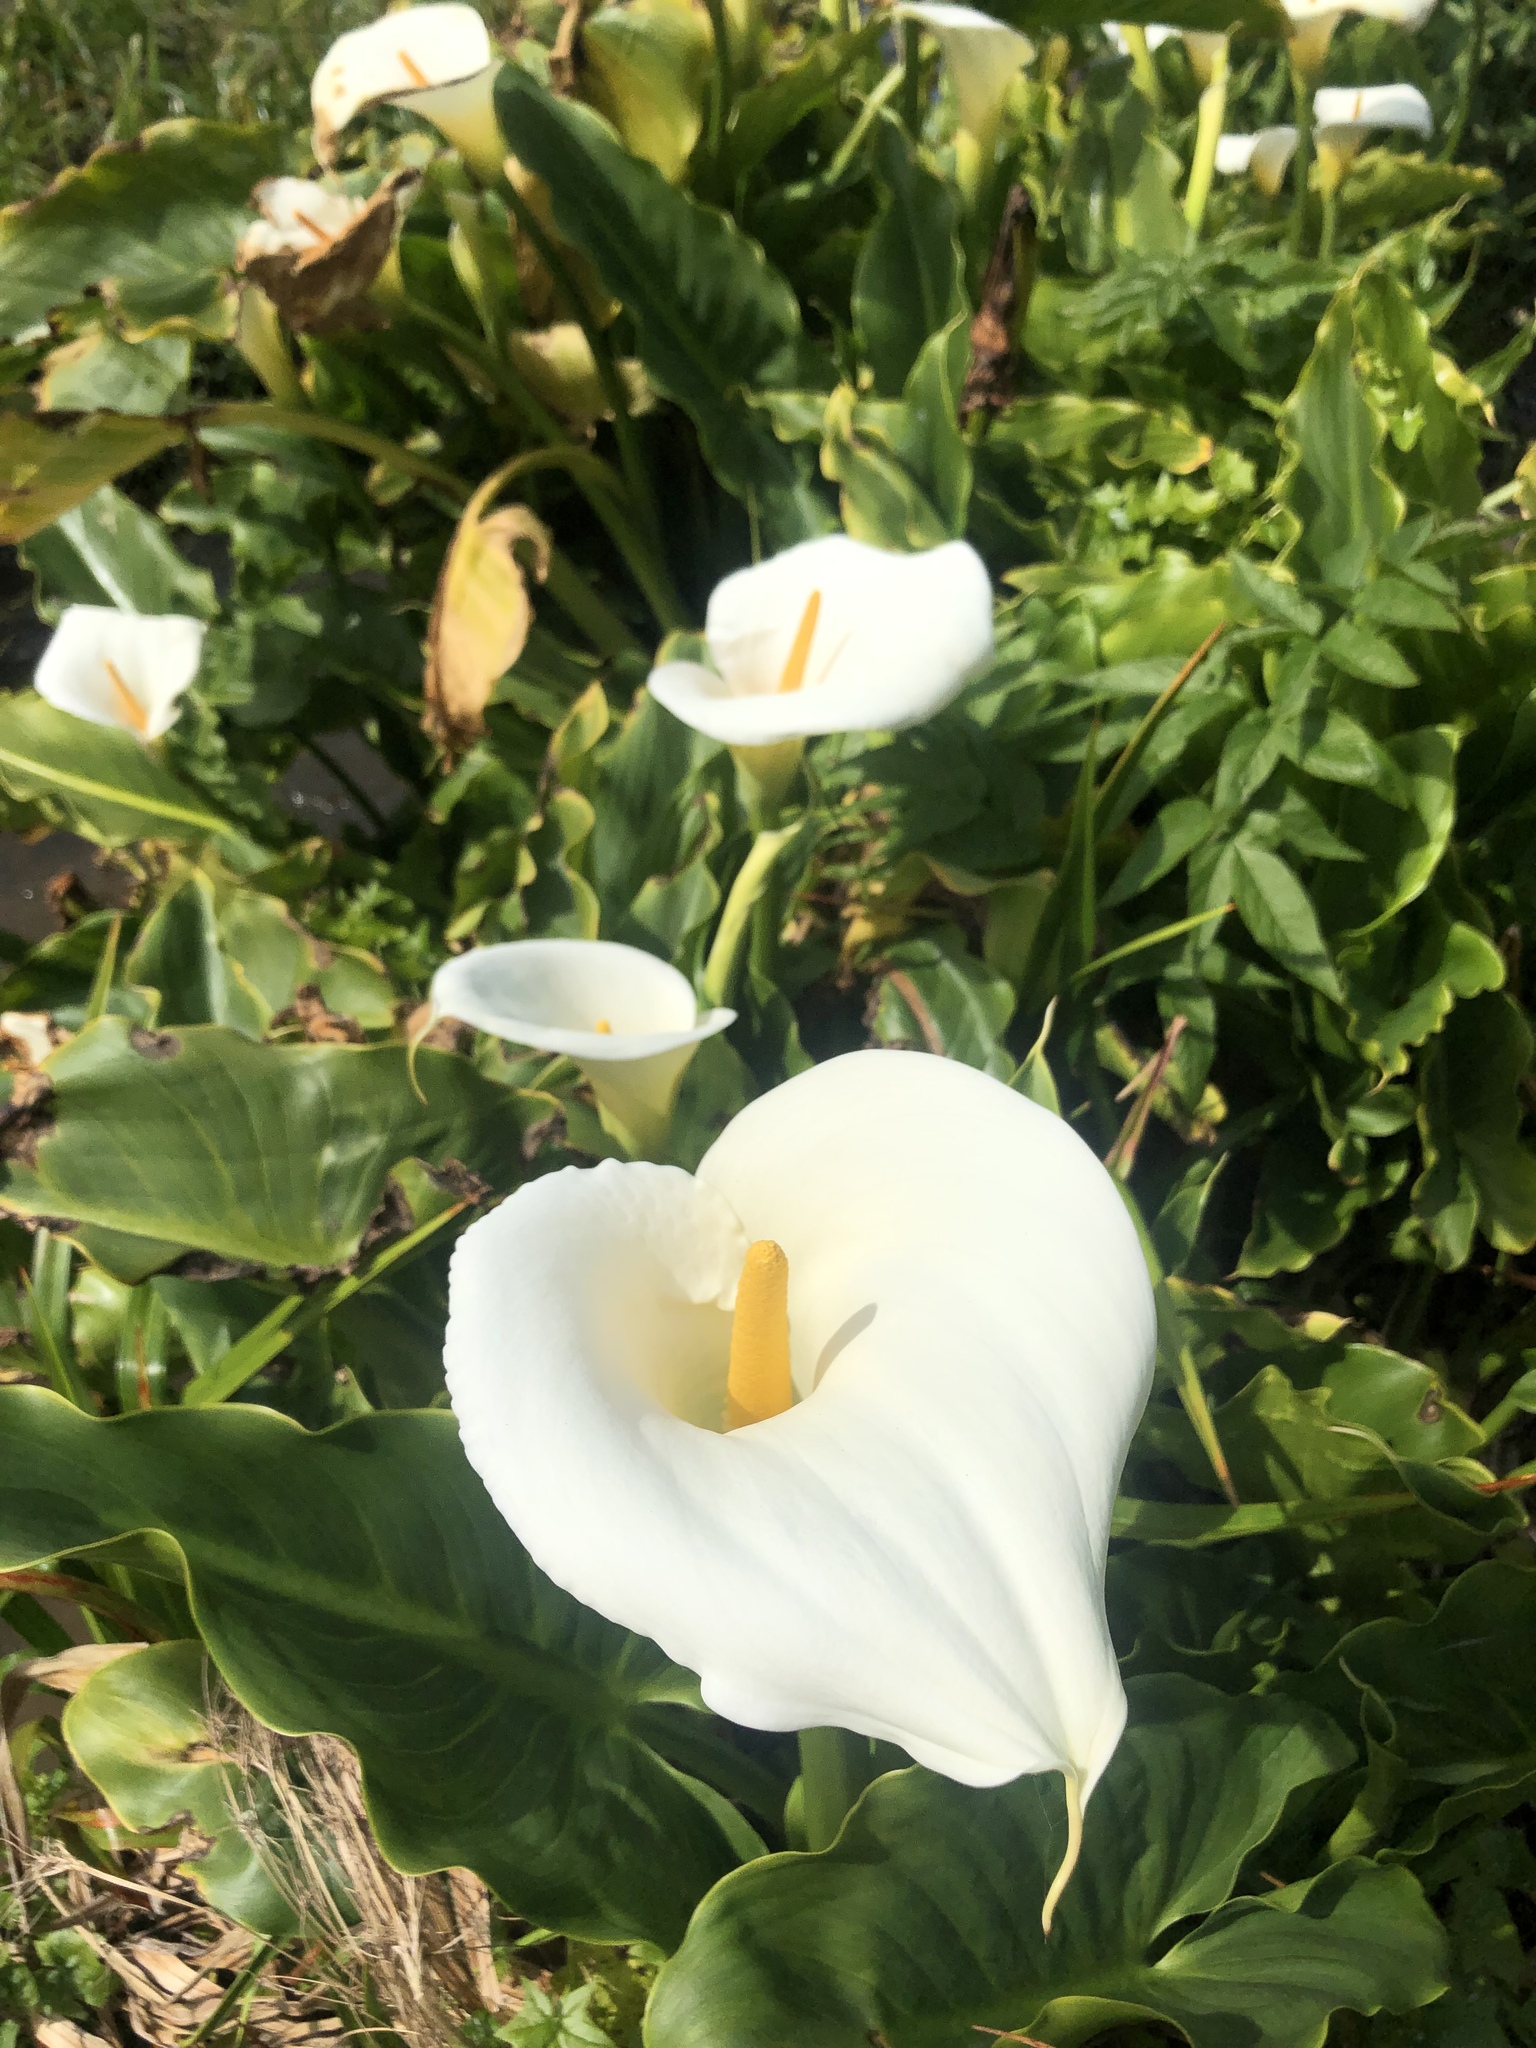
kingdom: Plantae
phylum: Tracheophyta
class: Liliopsida
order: Alismatales
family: Araceae
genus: Zantedeschia
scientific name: Zantedeschia aethiopica
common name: Altar-lily
